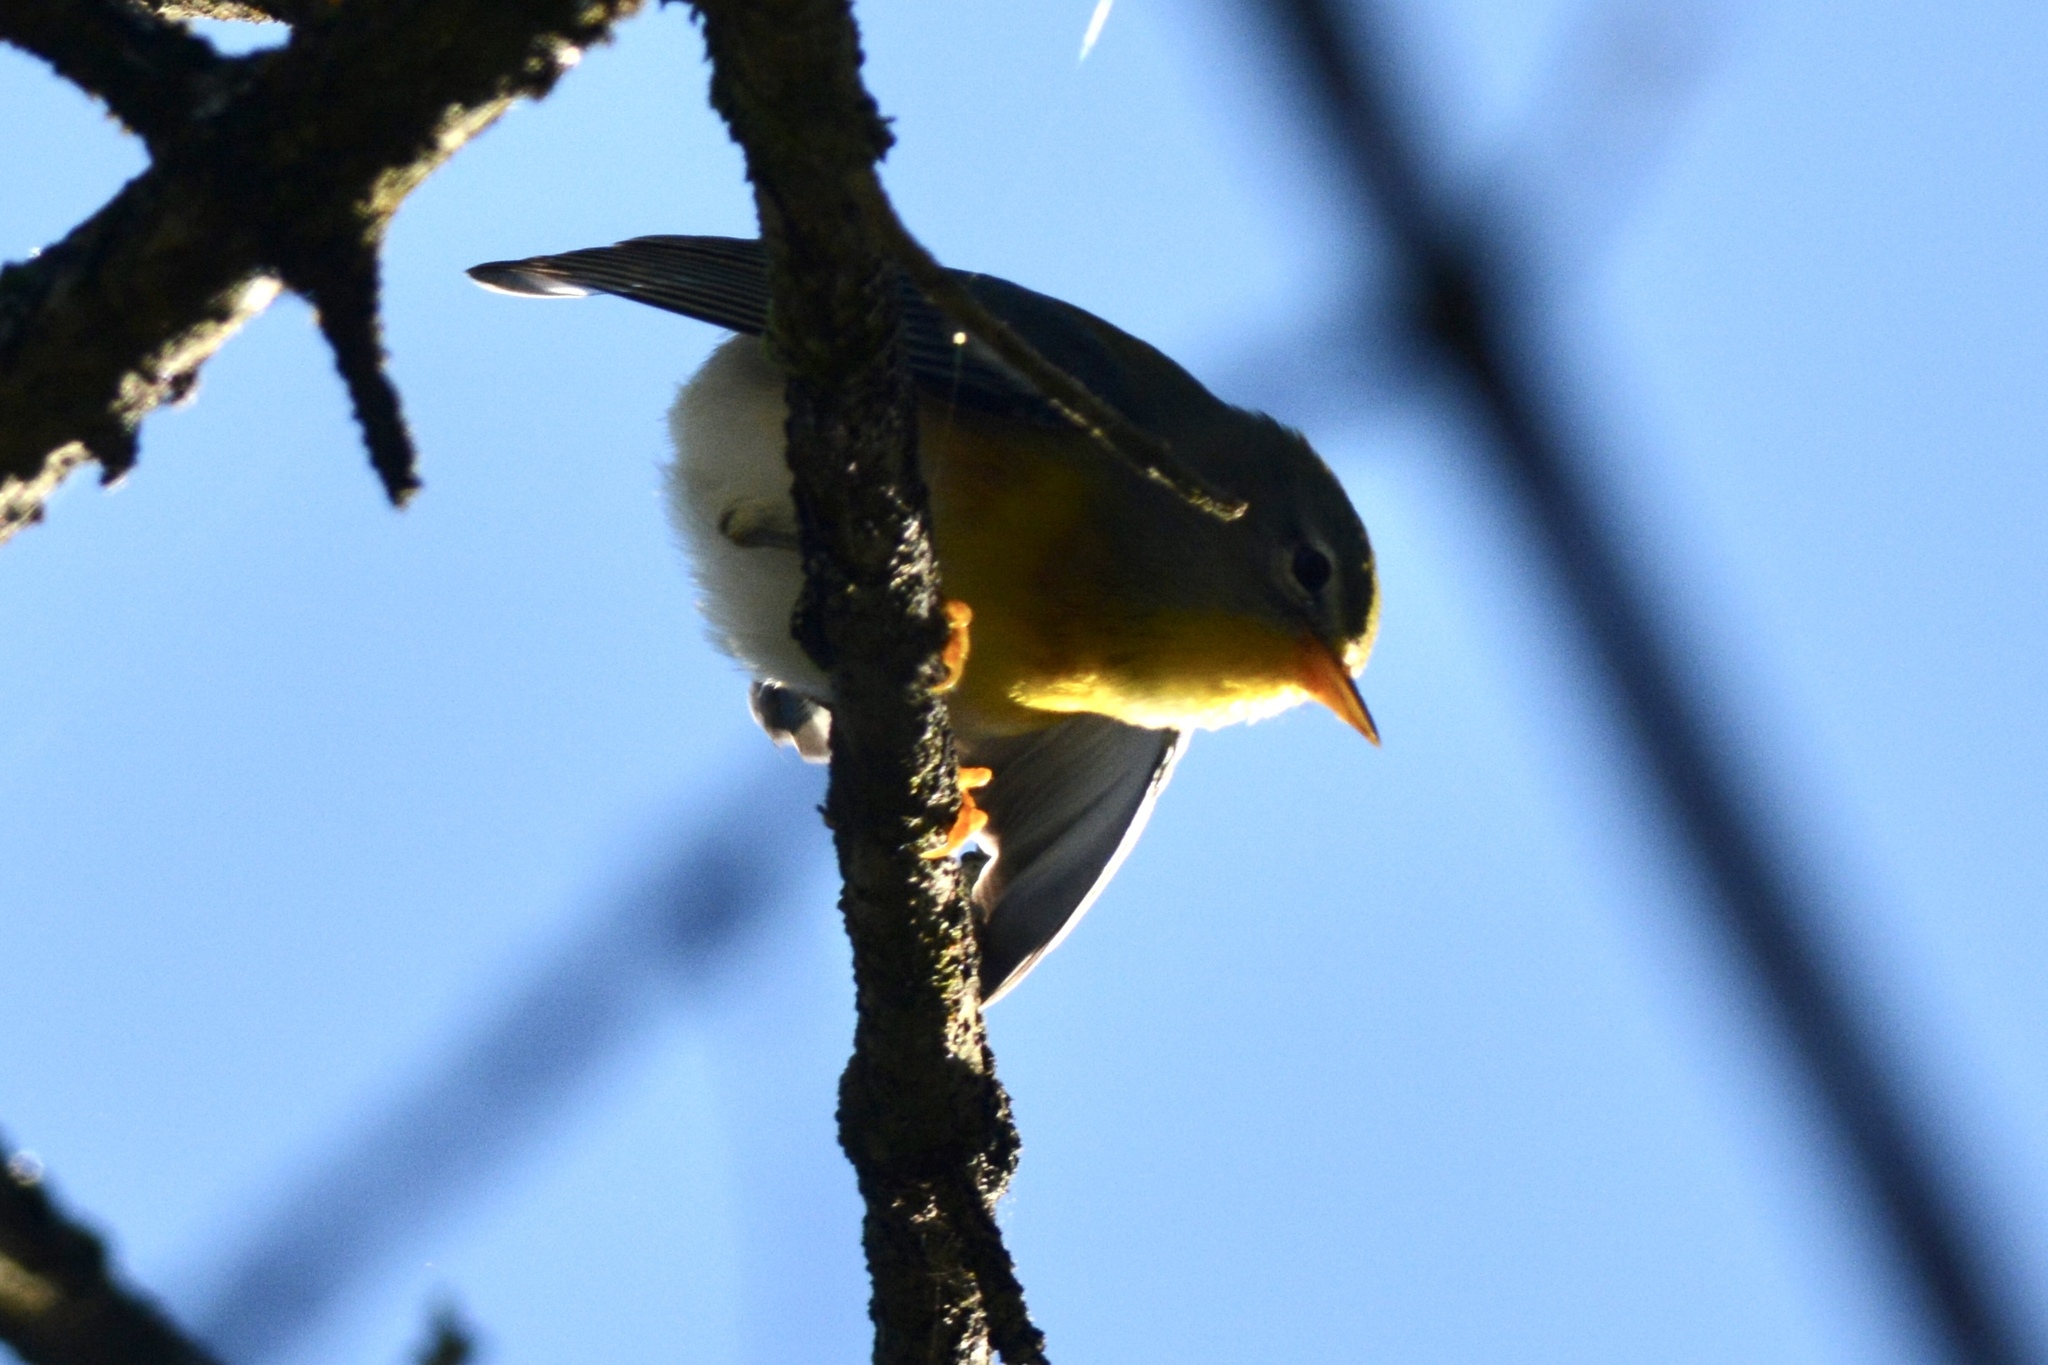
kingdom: Animalia
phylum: Chordata
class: Aves
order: Passeriformes
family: Parulidae
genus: Setophaga
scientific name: Setophaga americana
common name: Northern parula
